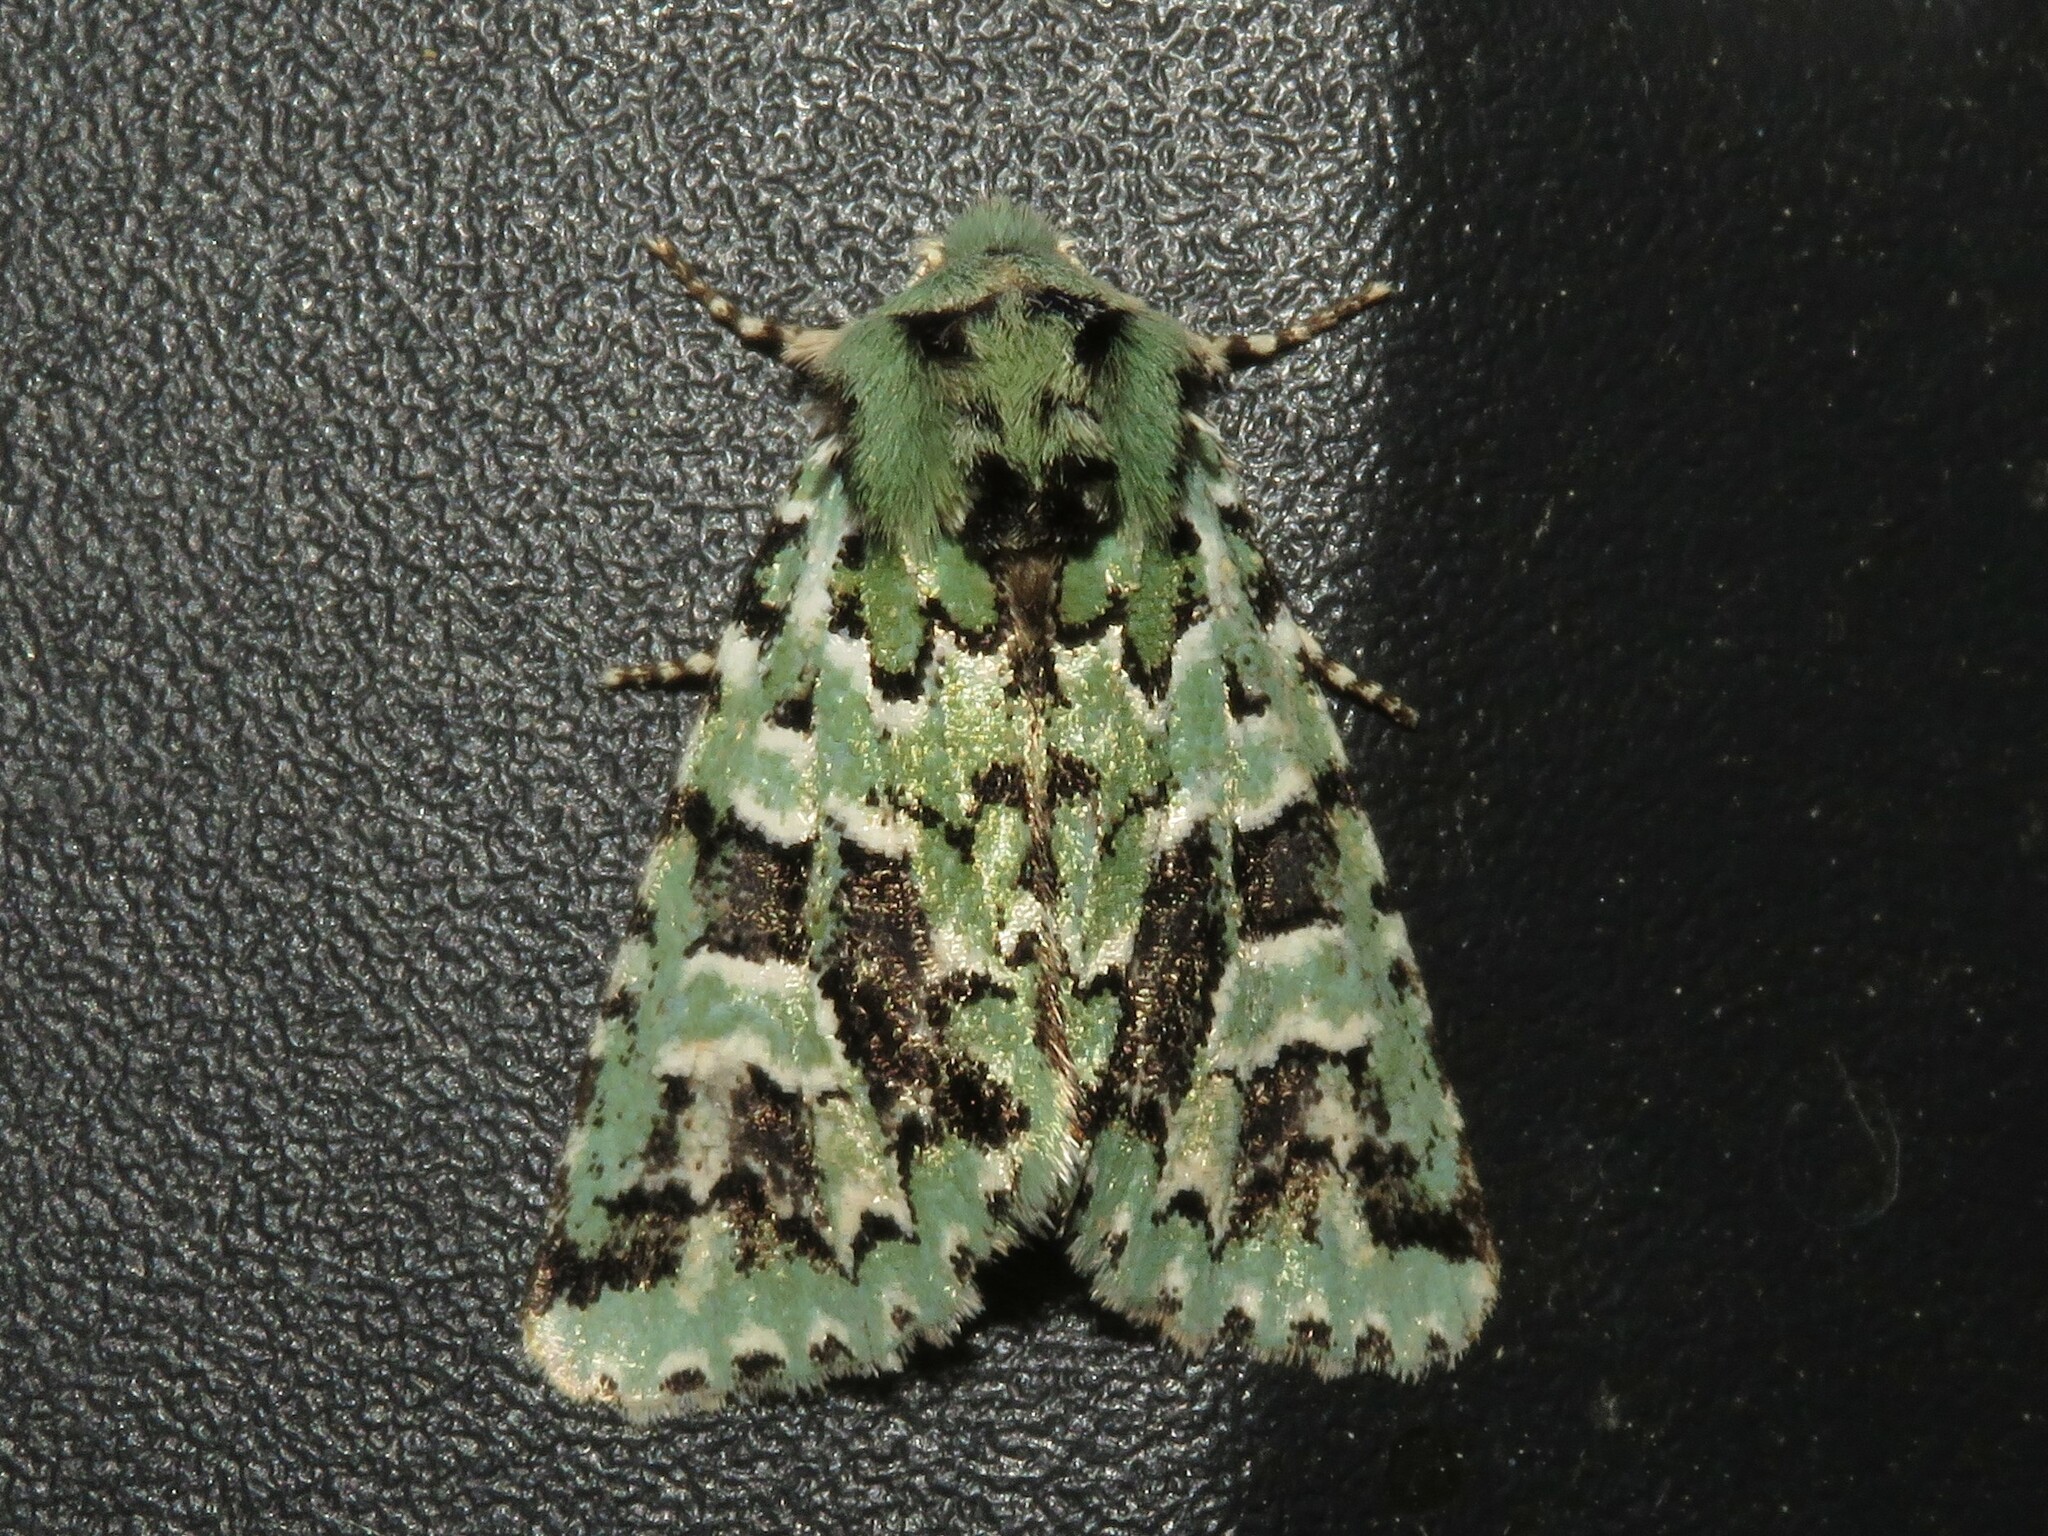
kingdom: Animalia
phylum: Arthropoda
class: Insecta
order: Lepidoptera
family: Noctuidae
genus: Feralia
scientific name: Feralia comstocki
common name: Comstock's sallow
